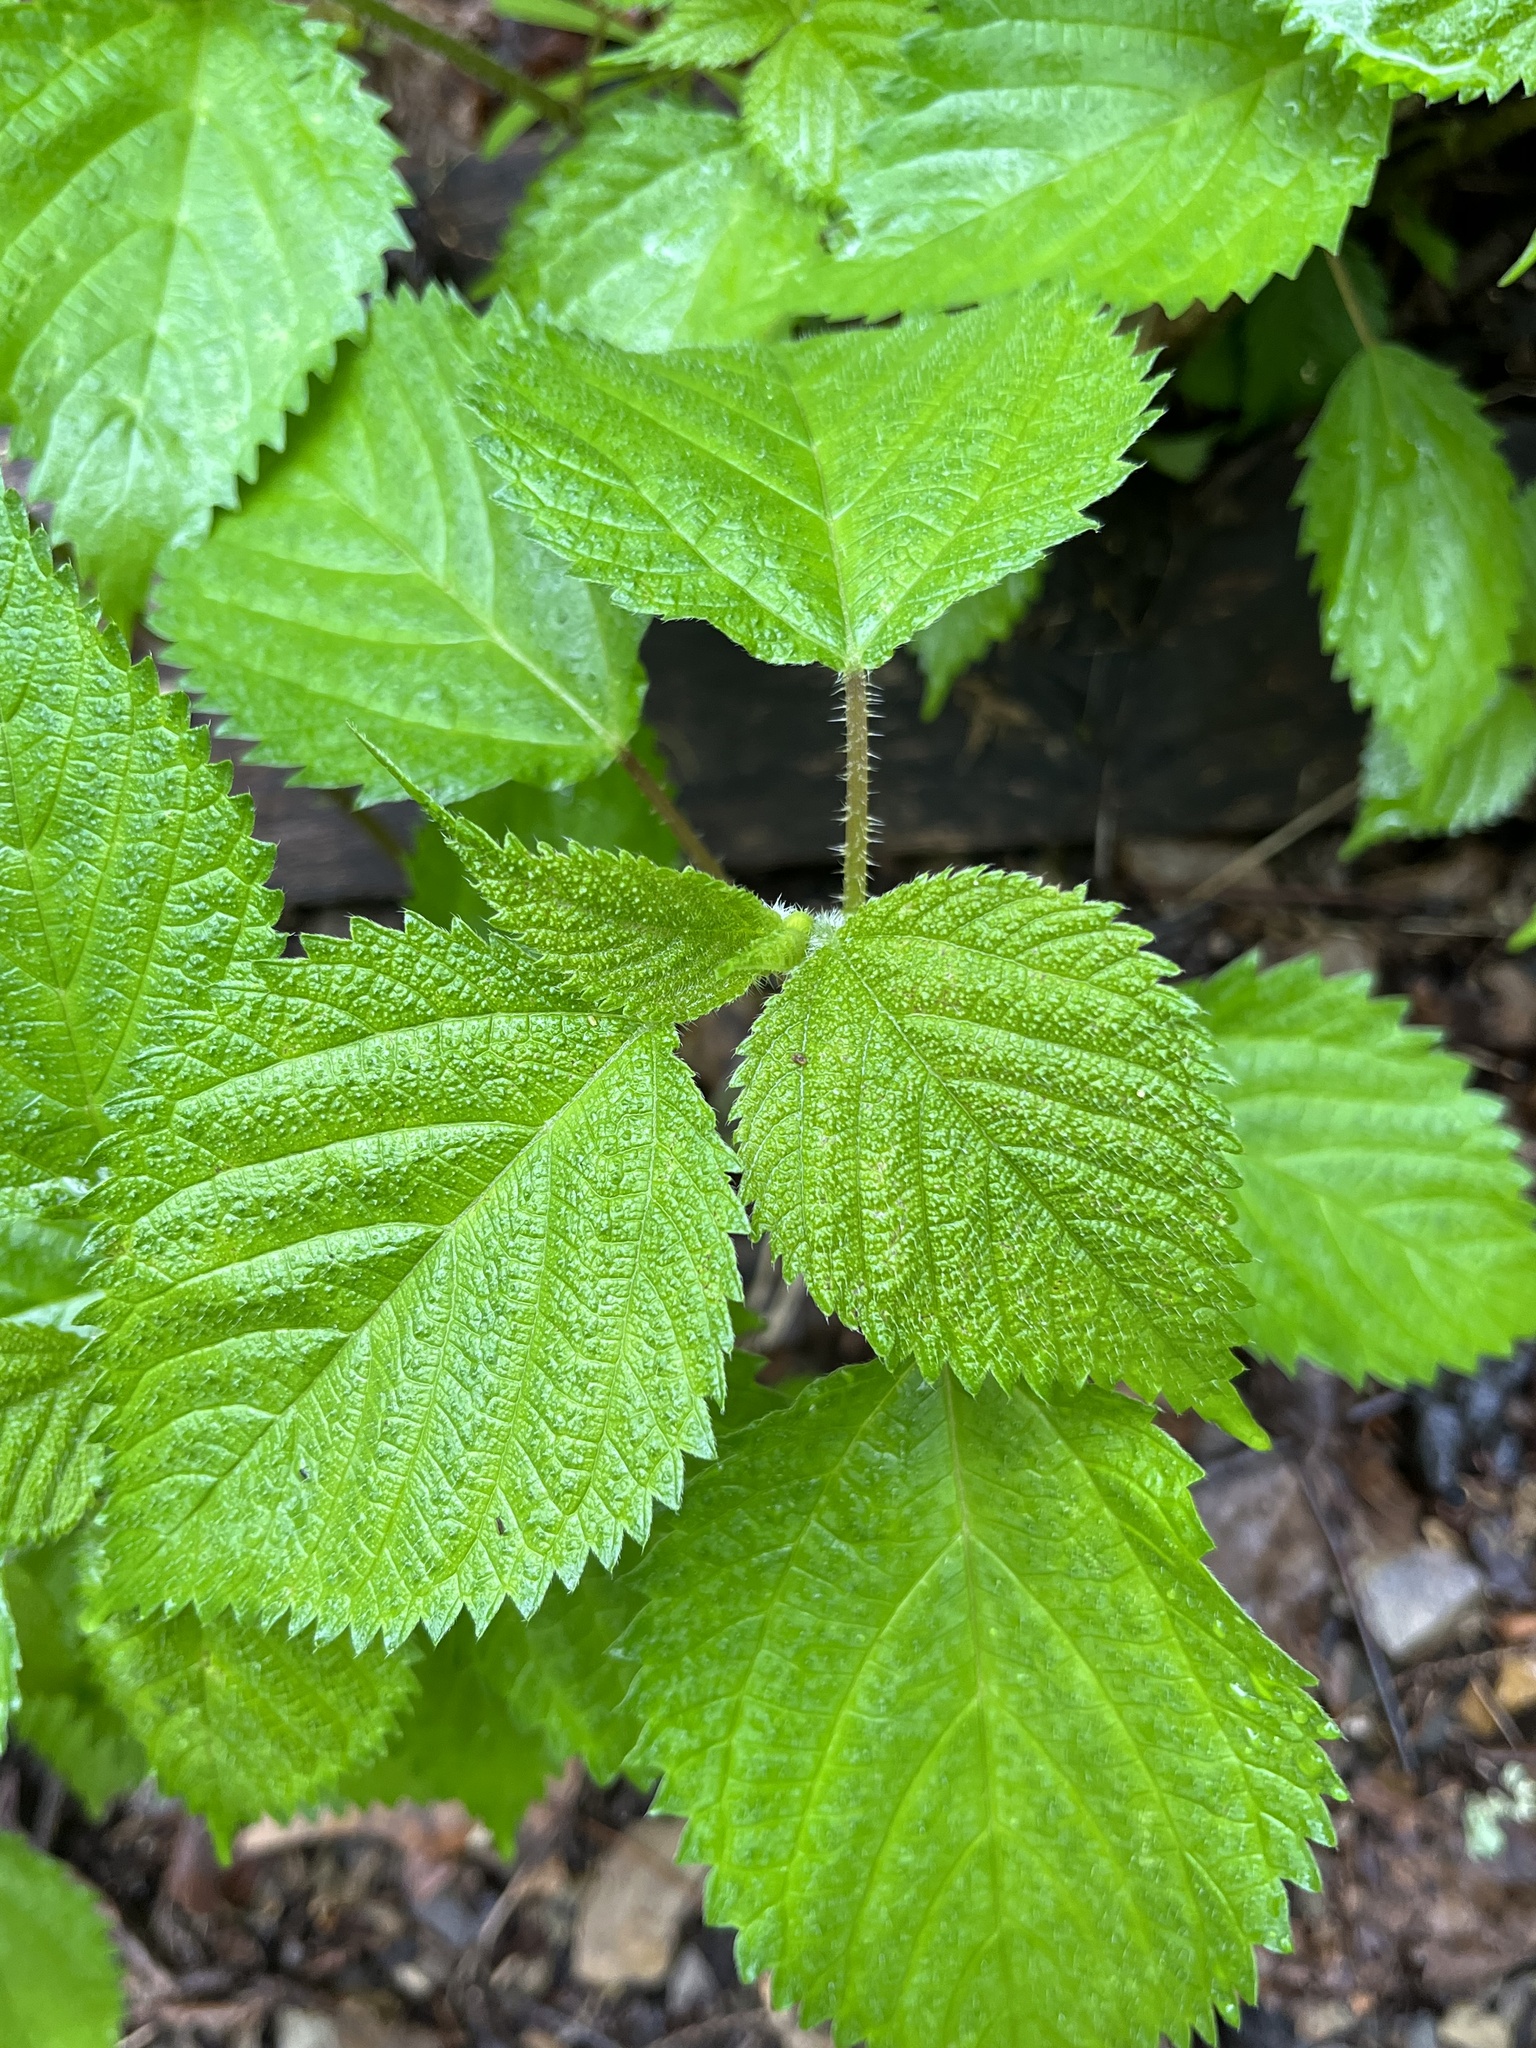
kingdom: Plantae
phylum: Tracheophyta
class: Magnoliopsida
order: Rosales
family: Urticaceae
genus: Laportea
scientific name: Laportea canadensis
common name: Canada nettle
